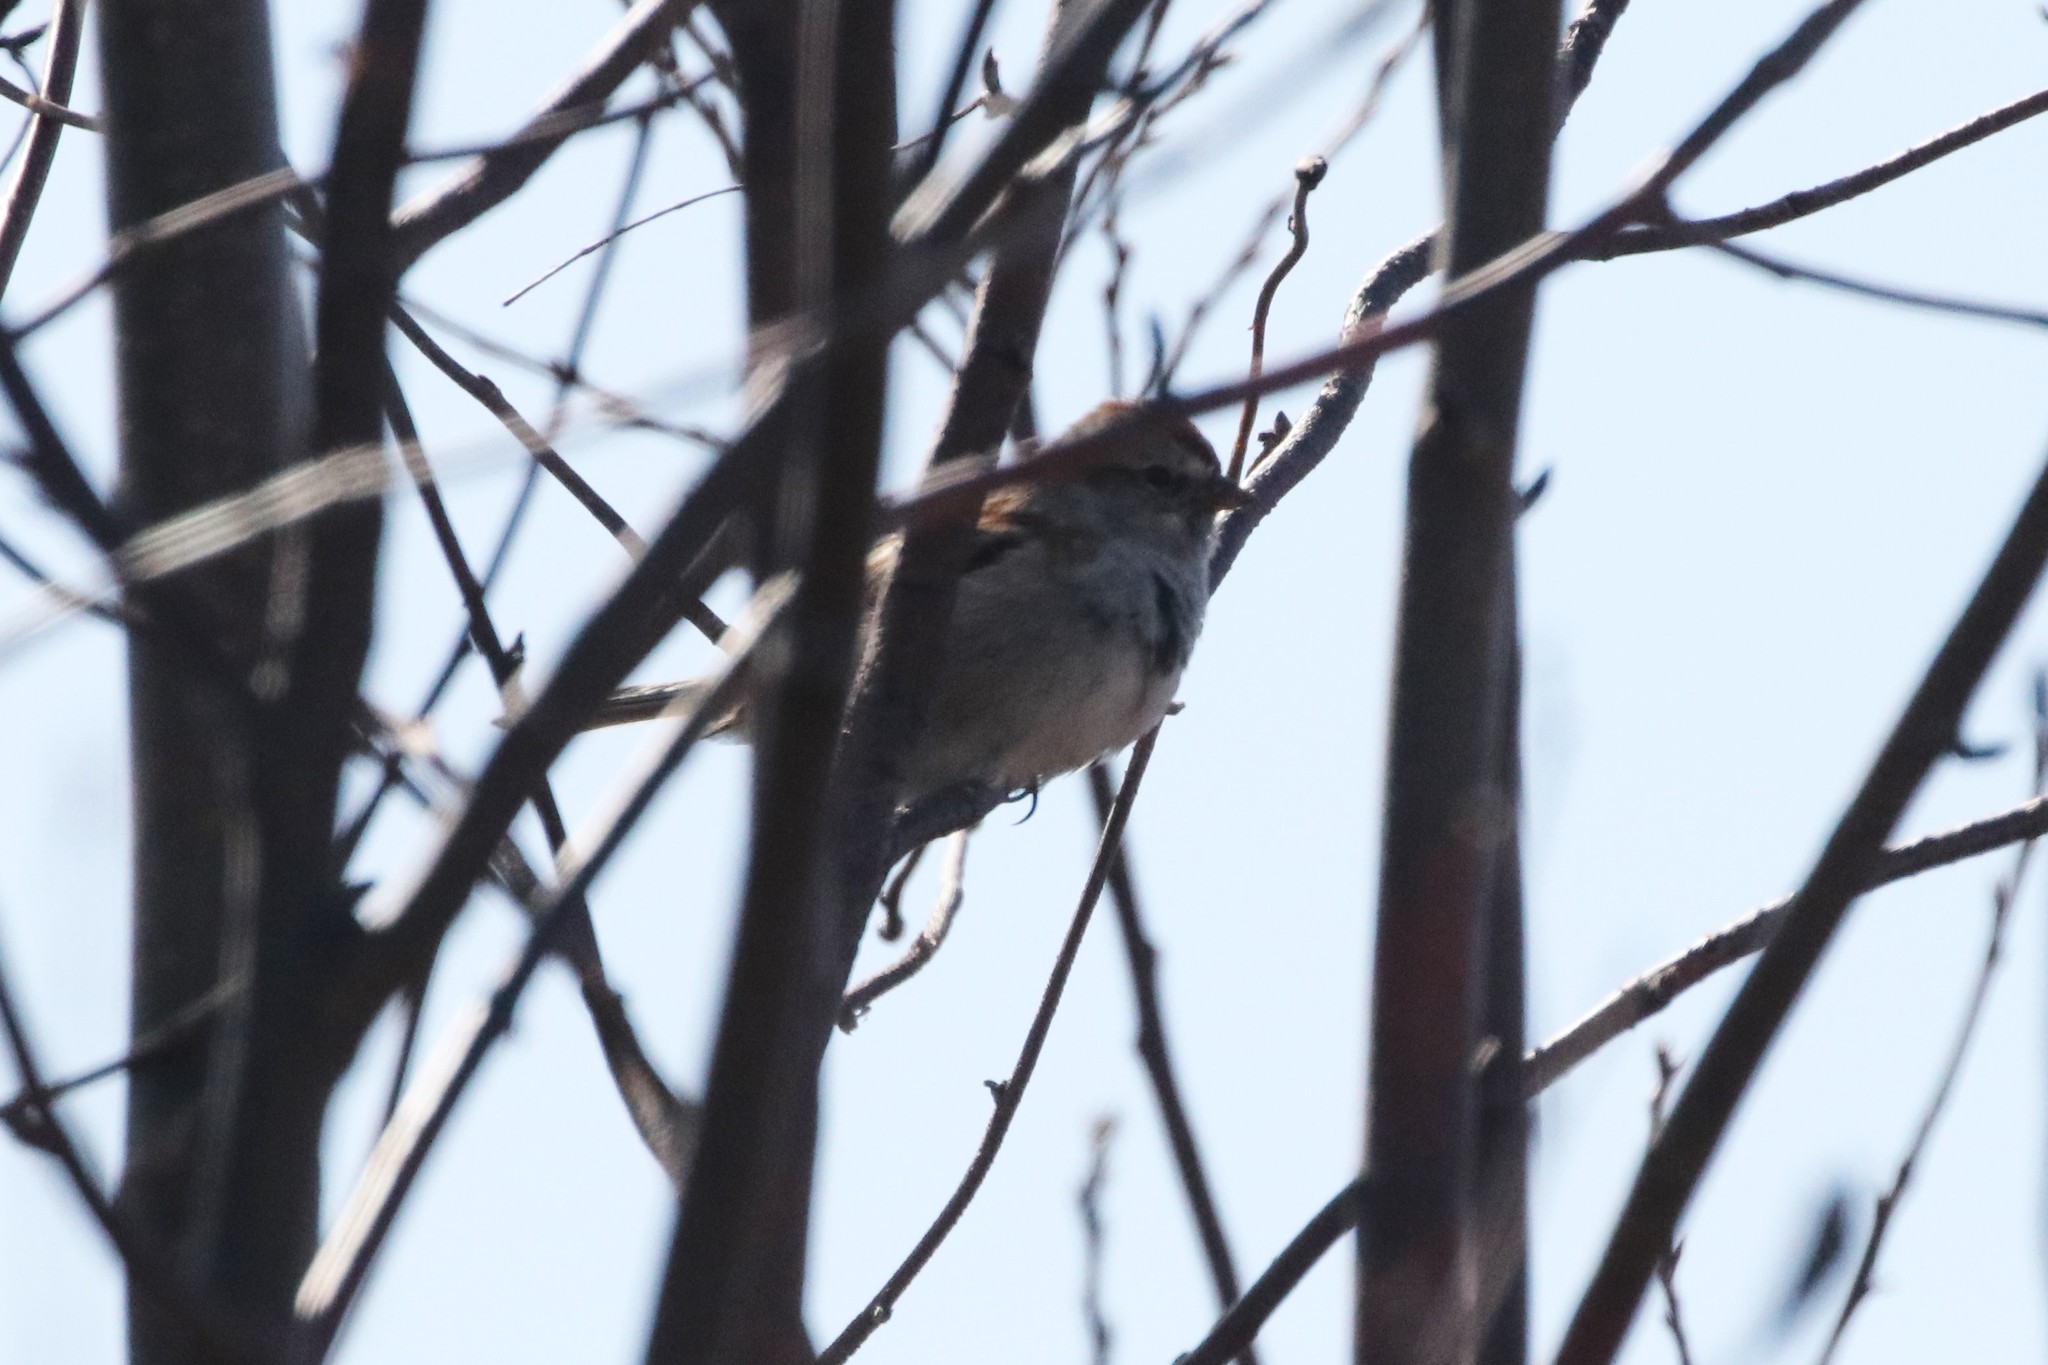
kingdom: Animalia
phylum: Chordata
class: Aves
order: Passeriformes
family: Passerellidae
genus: Spizelloides
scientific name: Spizelloides arborea
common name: American tree sparrow
